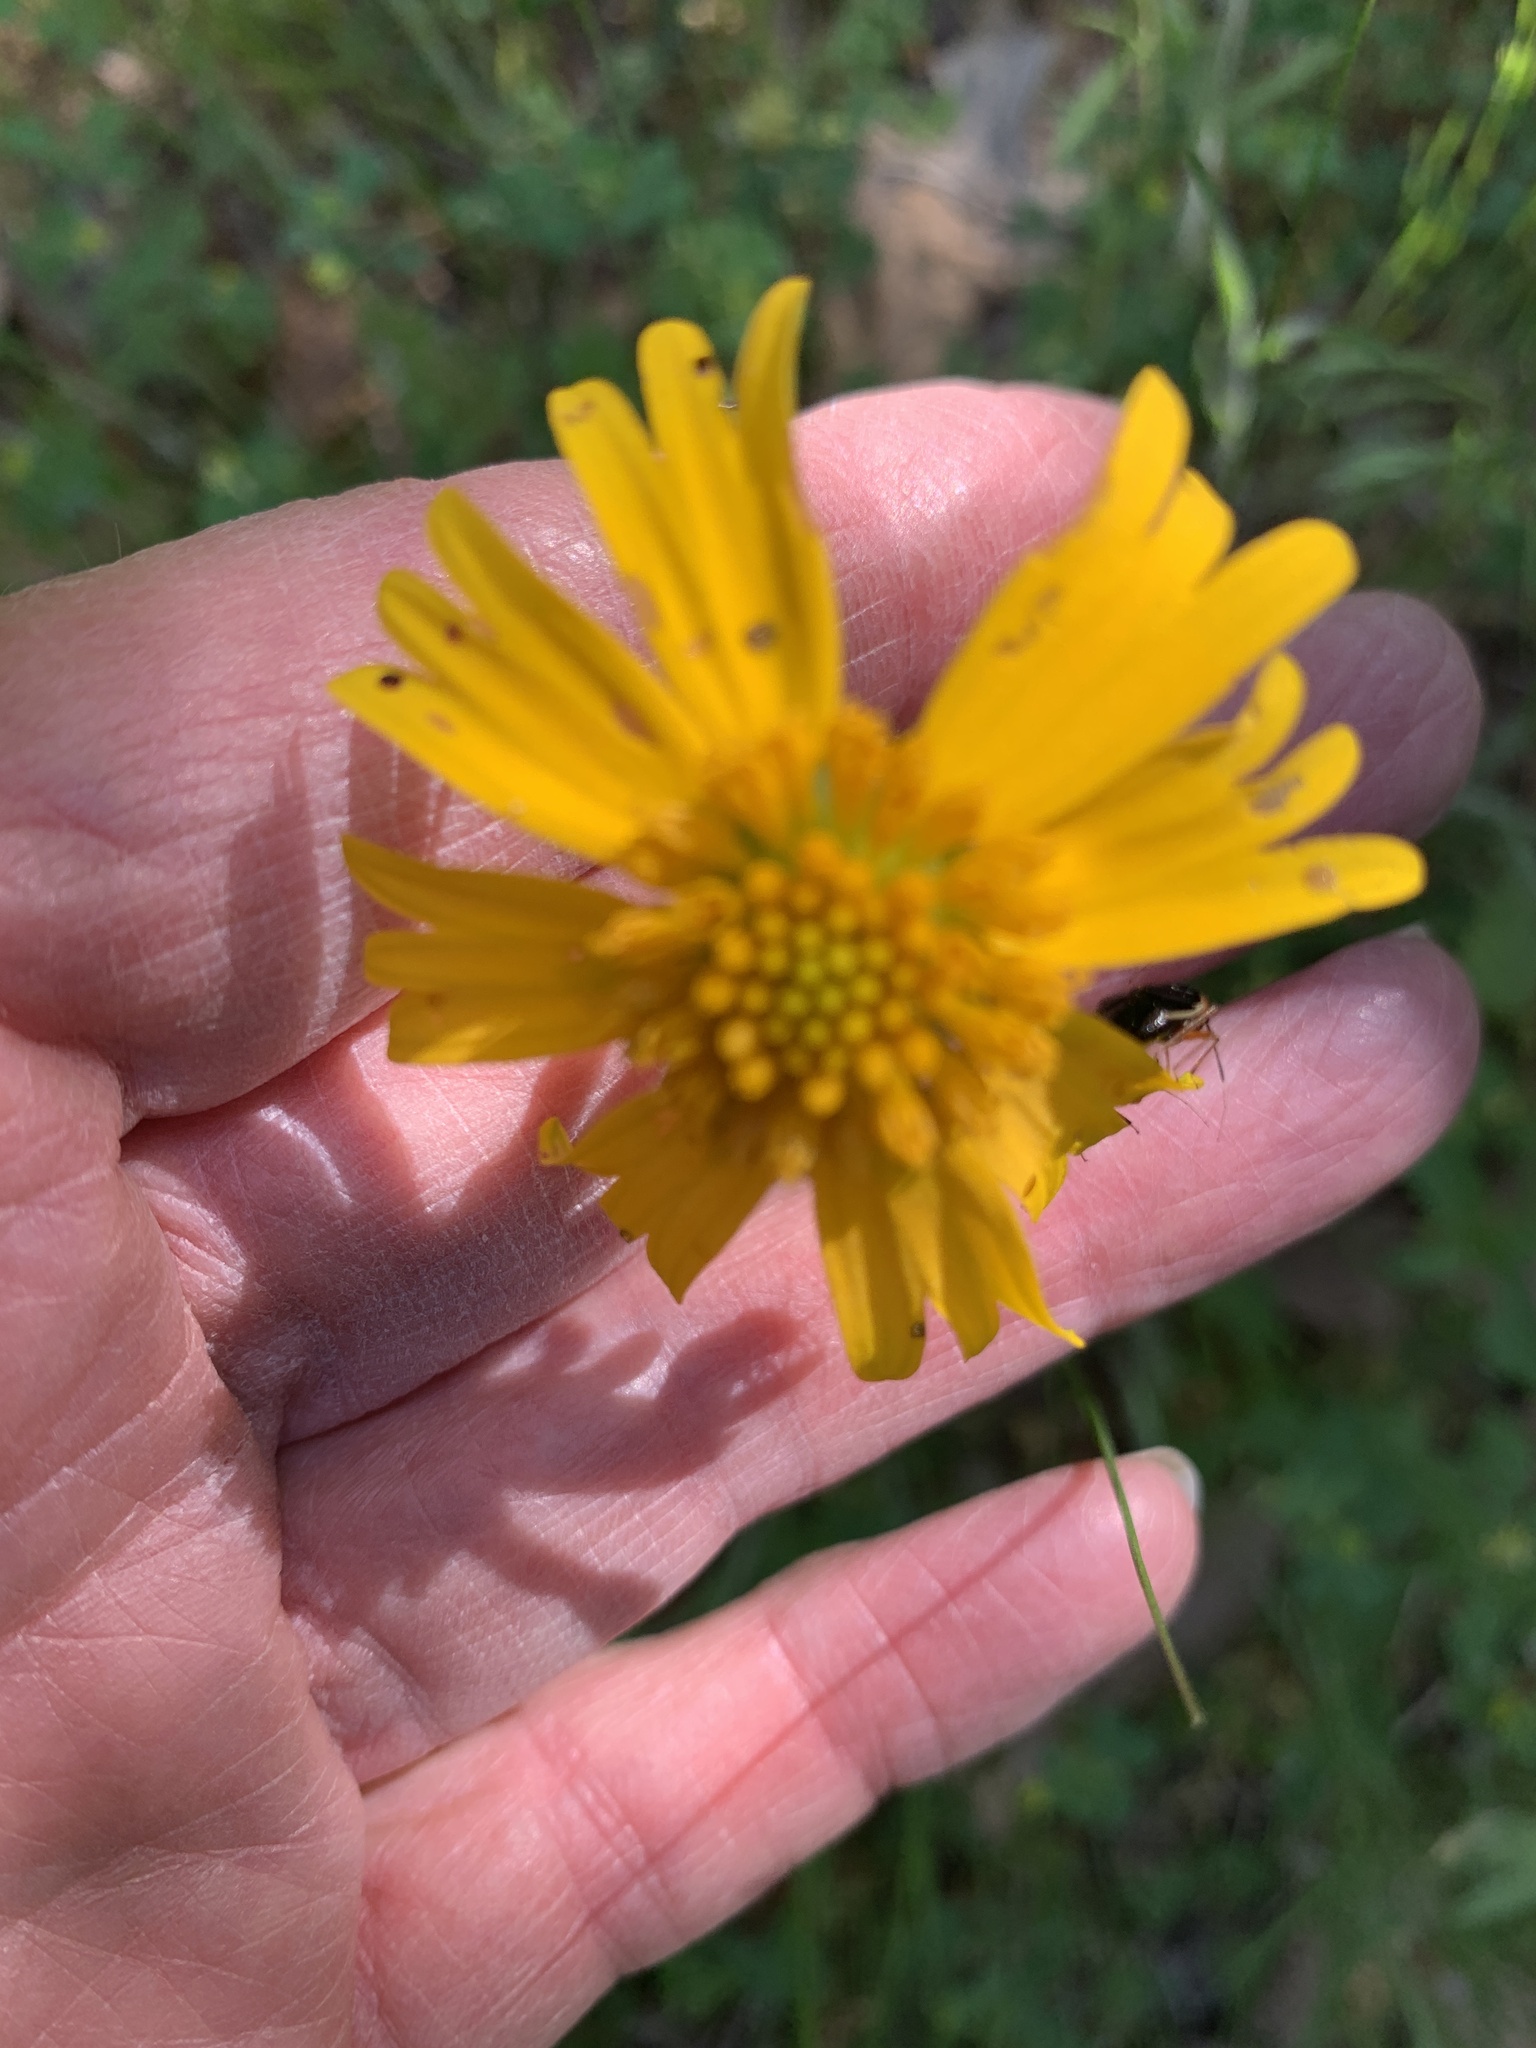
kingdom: Plantae
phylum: Tracheophyta
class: Magnoliopsida
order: Asterales
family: Asteraceae
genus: Amblyolepis
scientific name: Amblyolepis setigera
